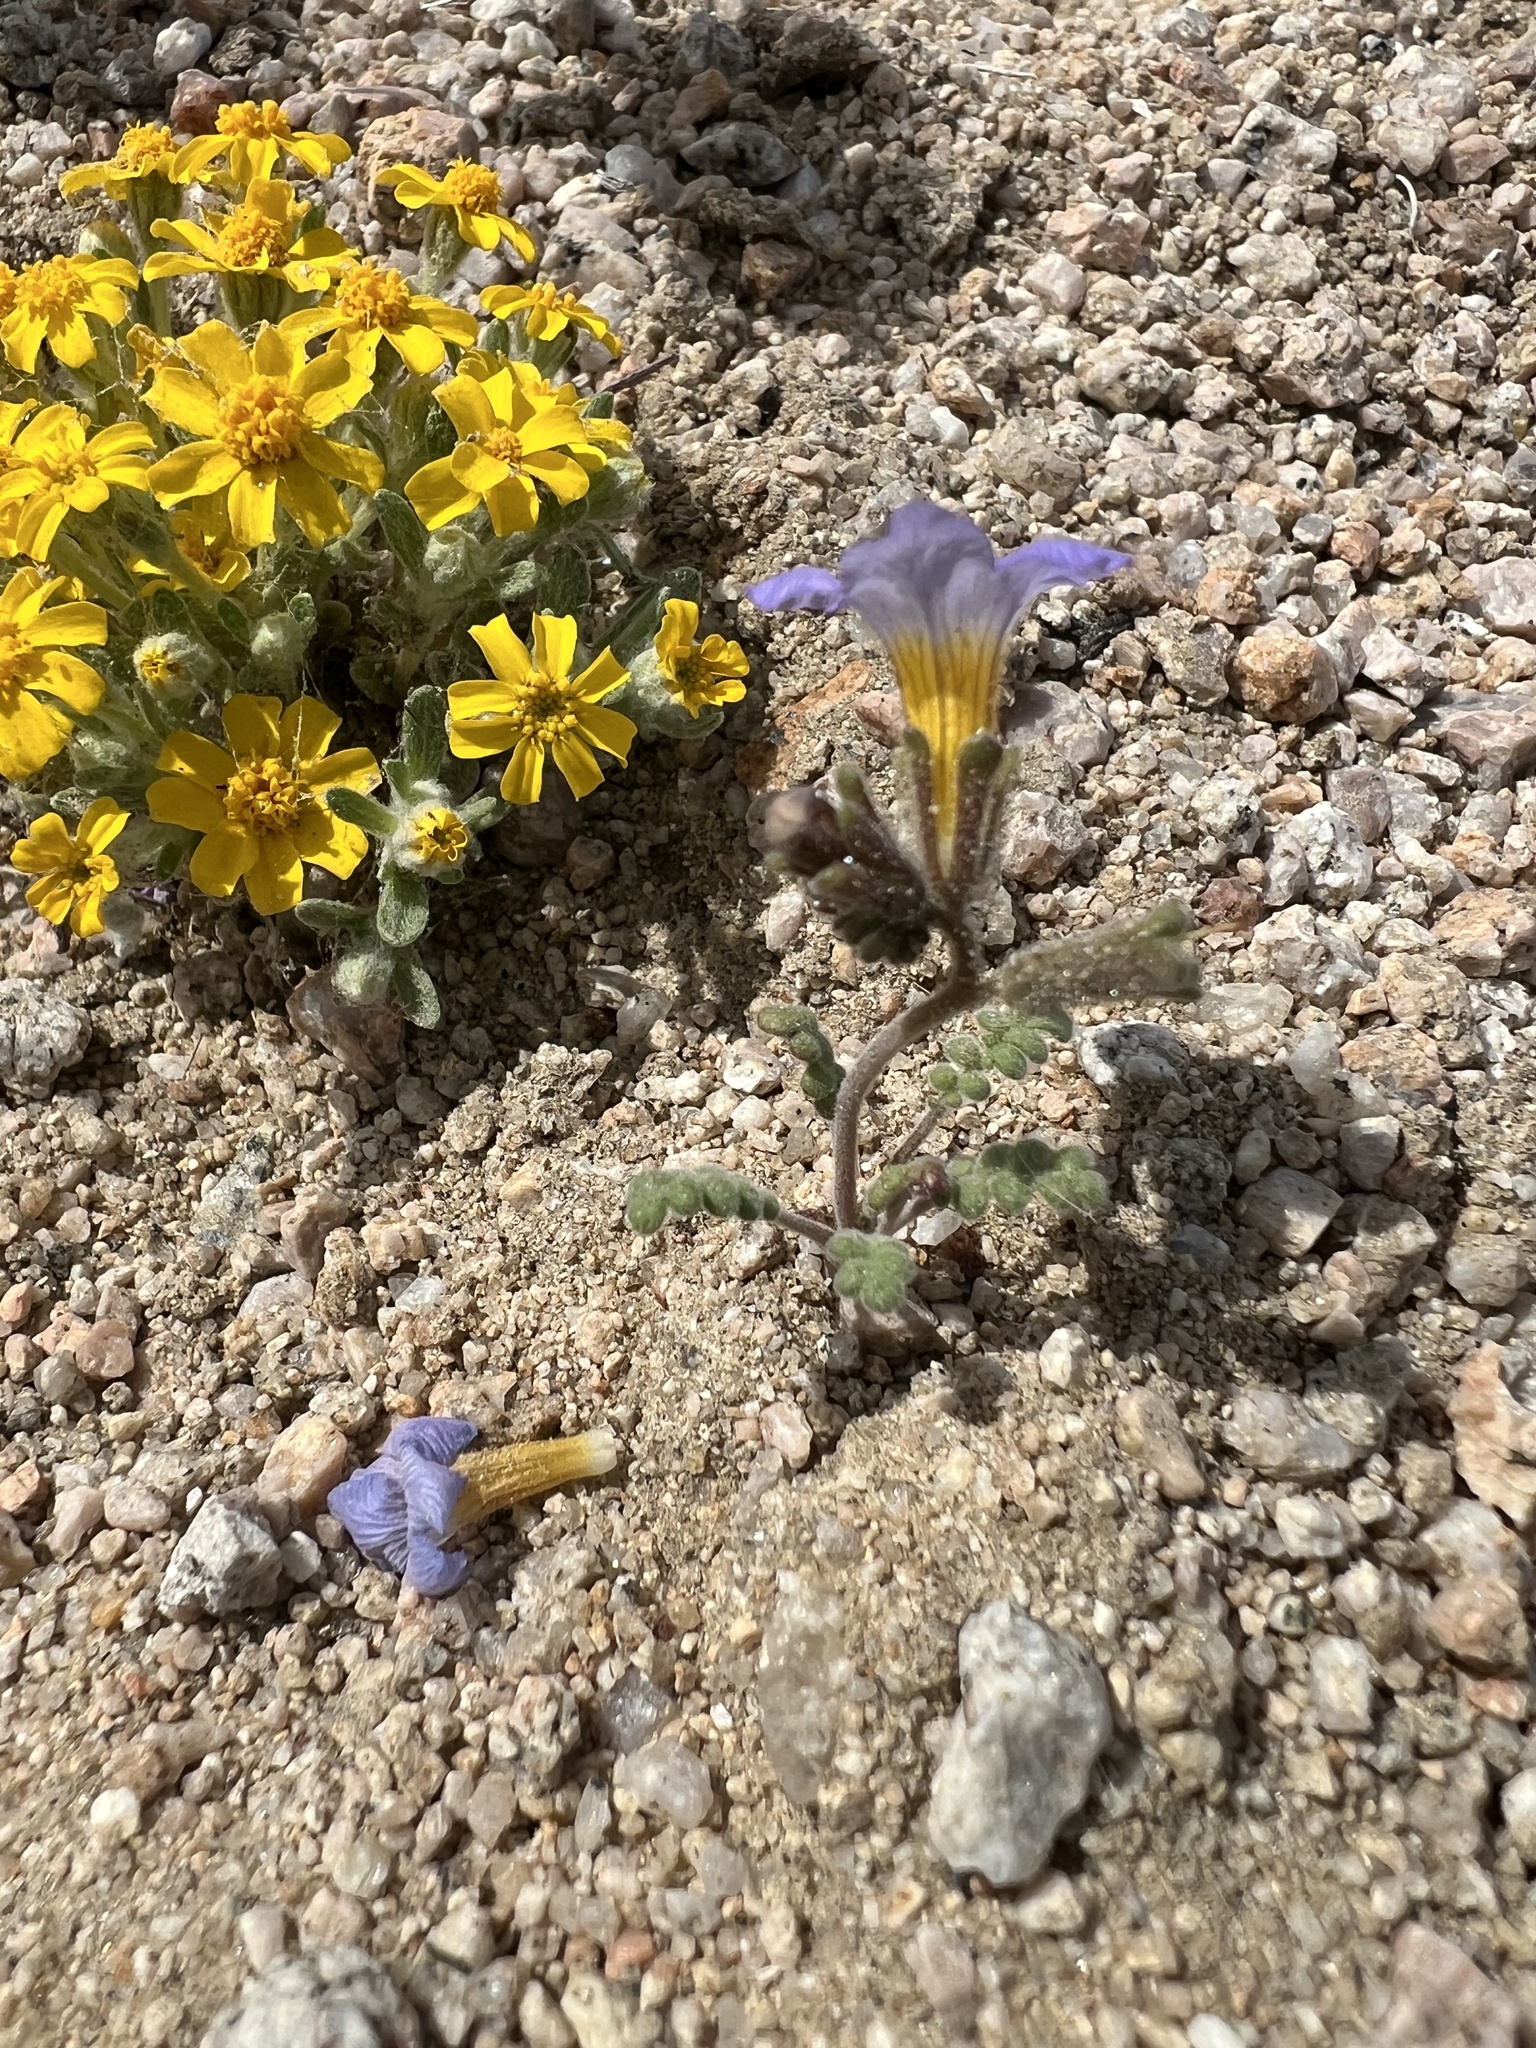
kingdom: Plantae
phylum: Tracheophyta
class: Magnoliopsida
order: Boraginales
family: Hydrophyllaceae
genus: Phacelia
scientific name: Phacelia fremontii
